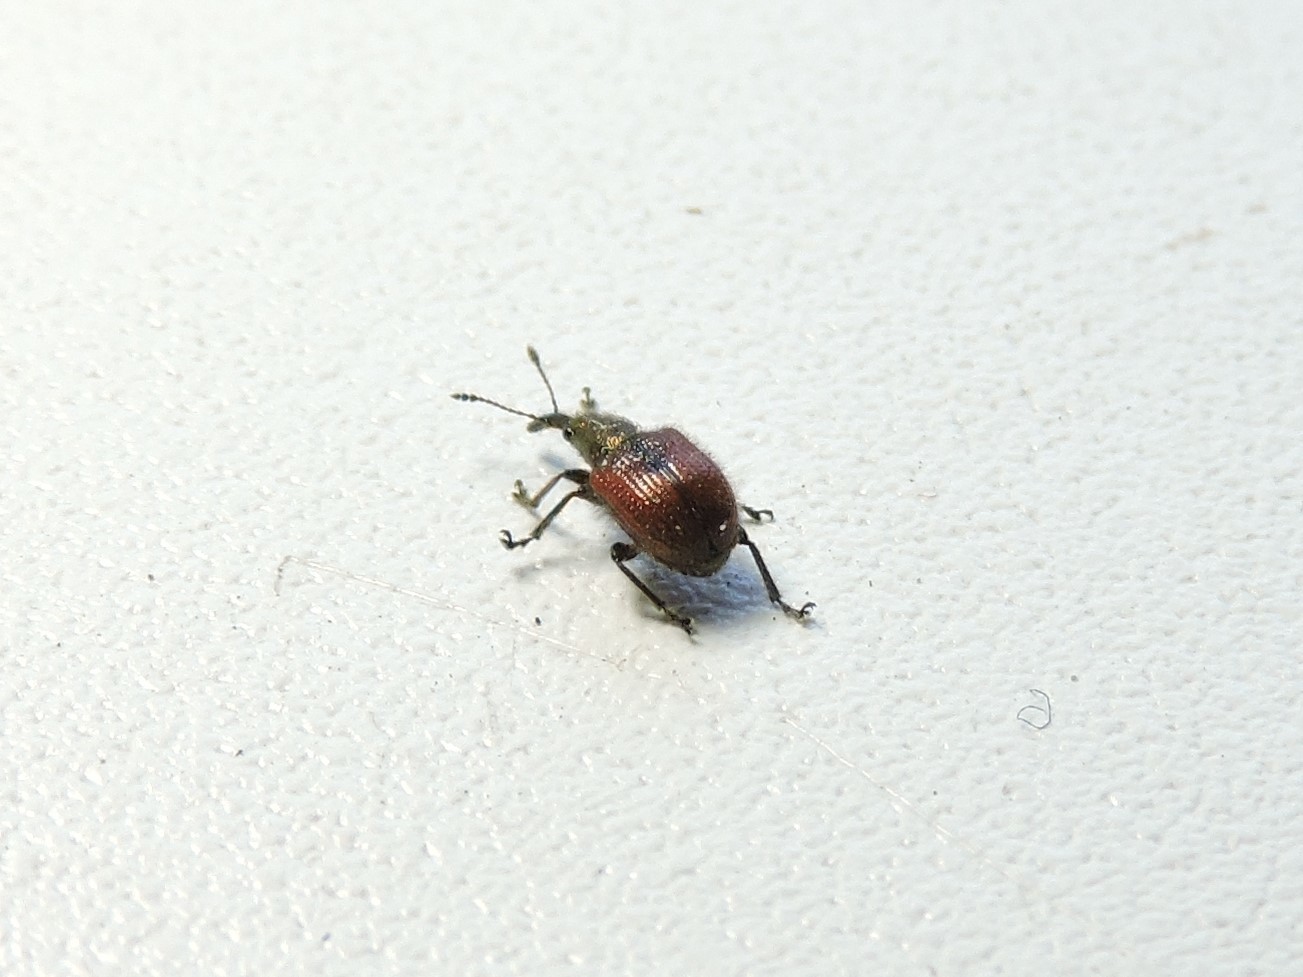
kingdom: Animalia
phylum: Arthropoda
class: Insecta
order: Coleoptera
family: Rhynchitidae
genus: Tatianaerhynchites
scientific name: Tatianaerhynchites aequatus
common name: Apple fruit rhynchites
